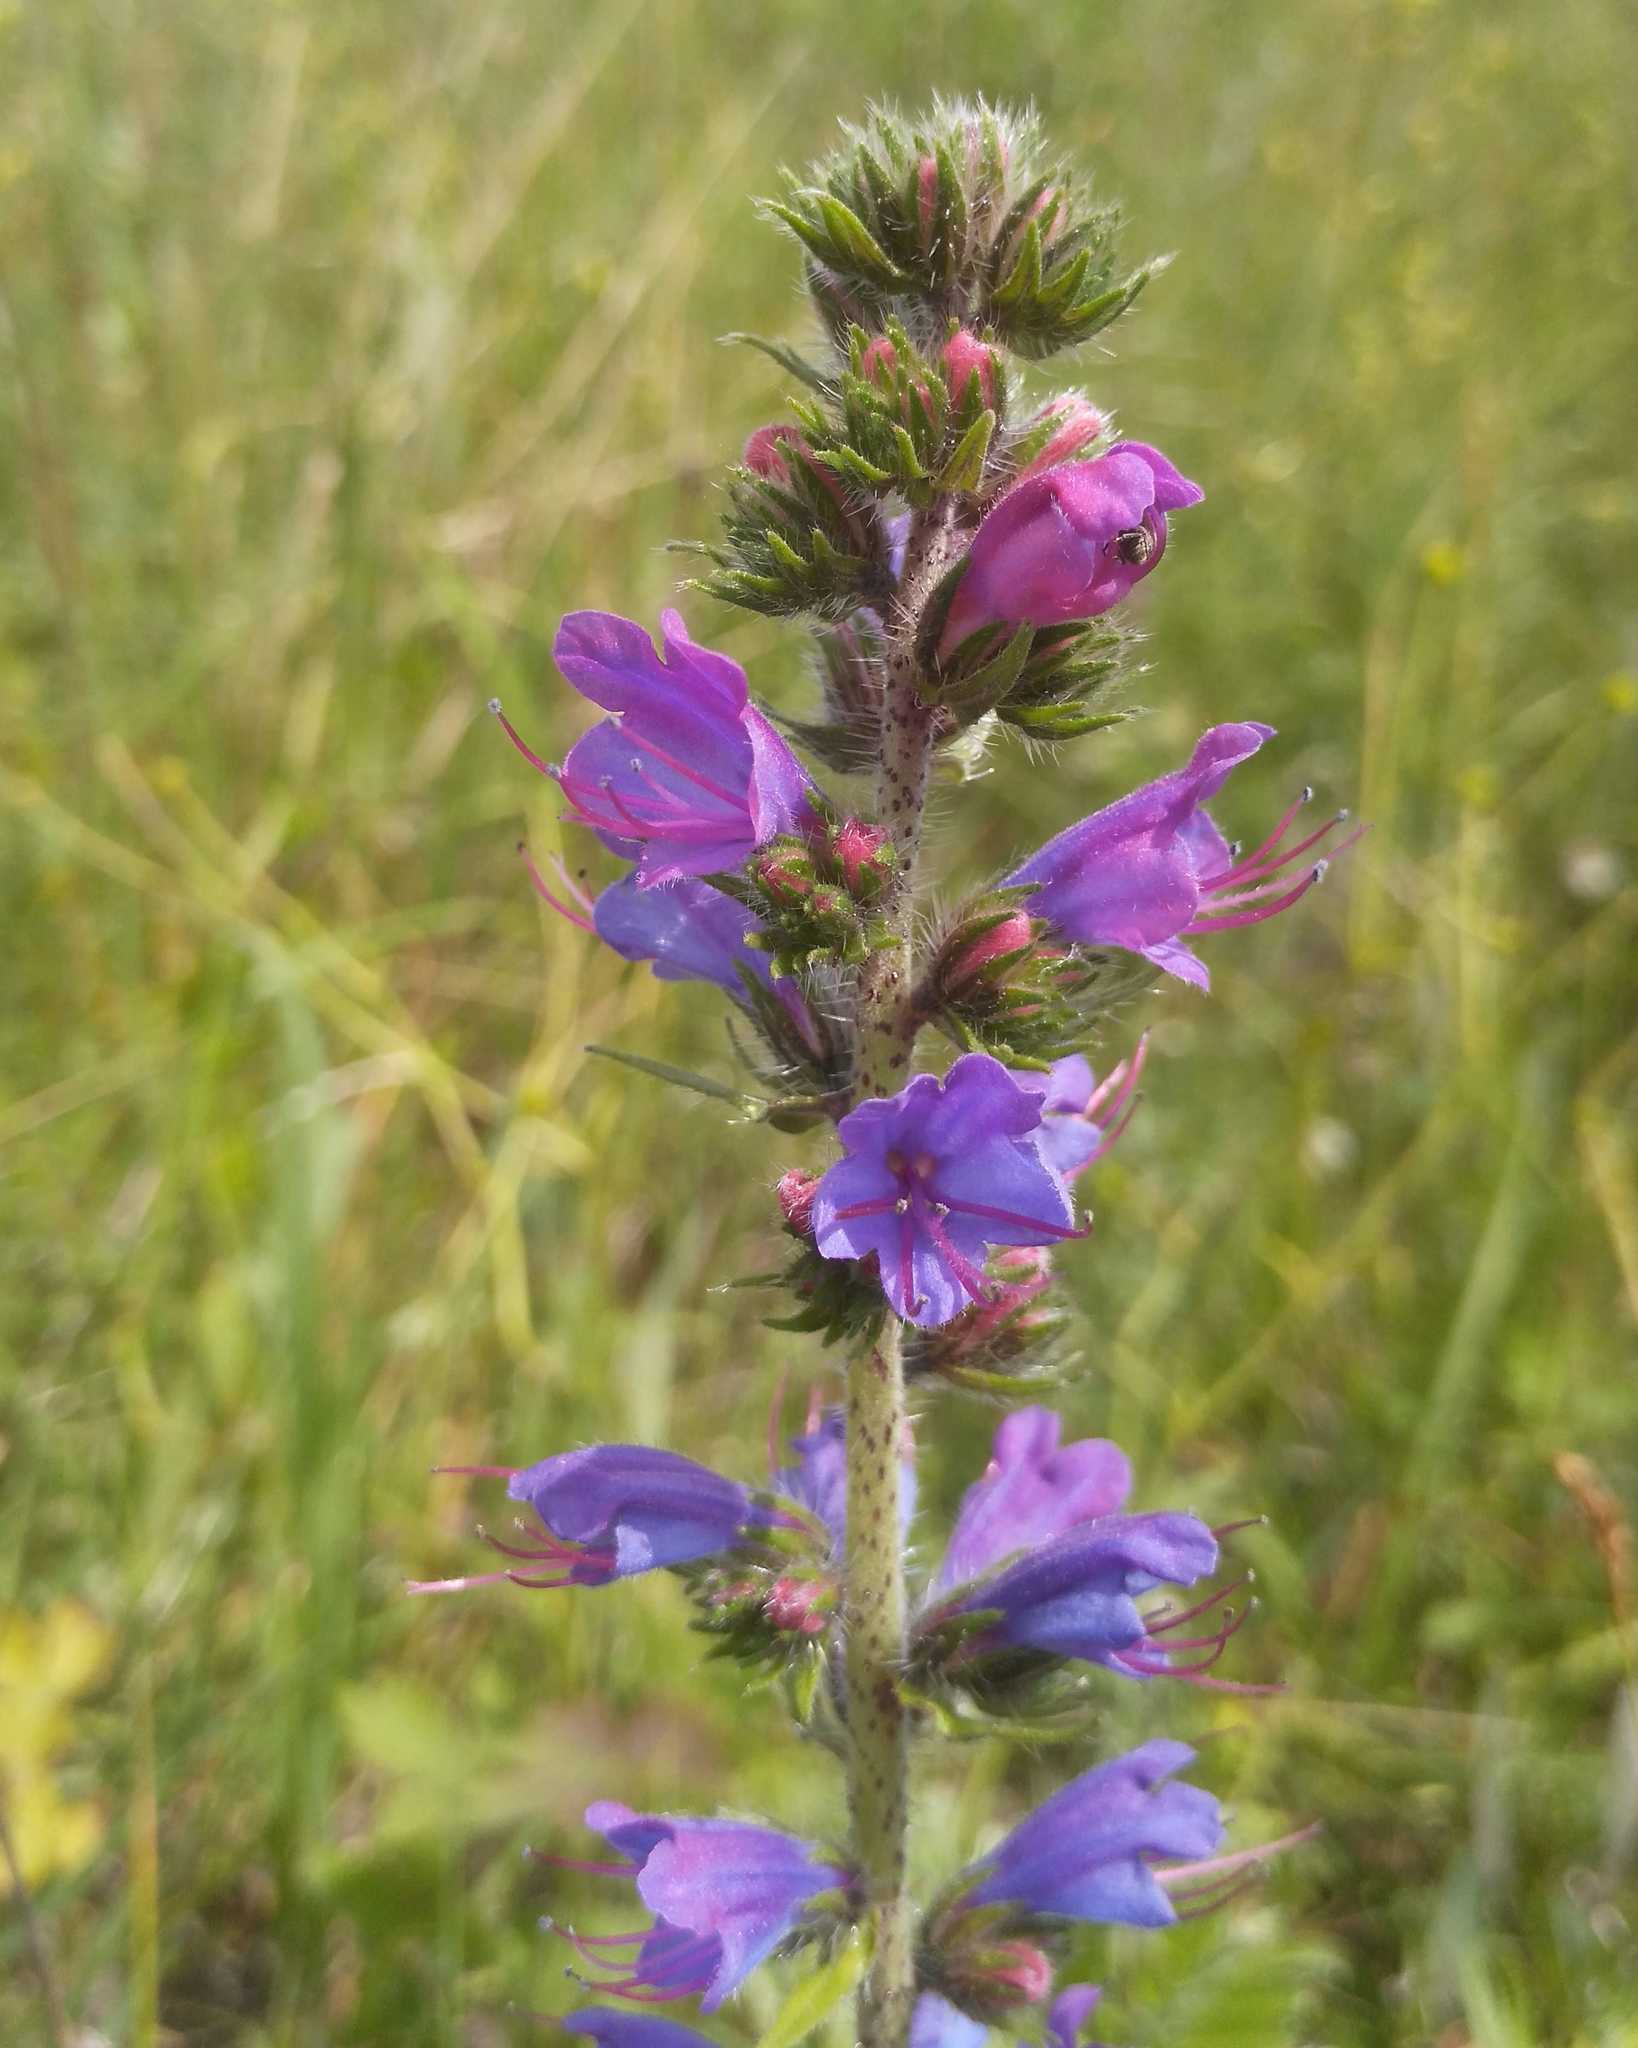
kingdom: Plantae
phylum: Tracheophyta
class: Magnoliopsida
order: Boraginales
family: Boraginaceae
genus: Echium
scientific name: Echium vulgare
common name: Common viper's bugloss
